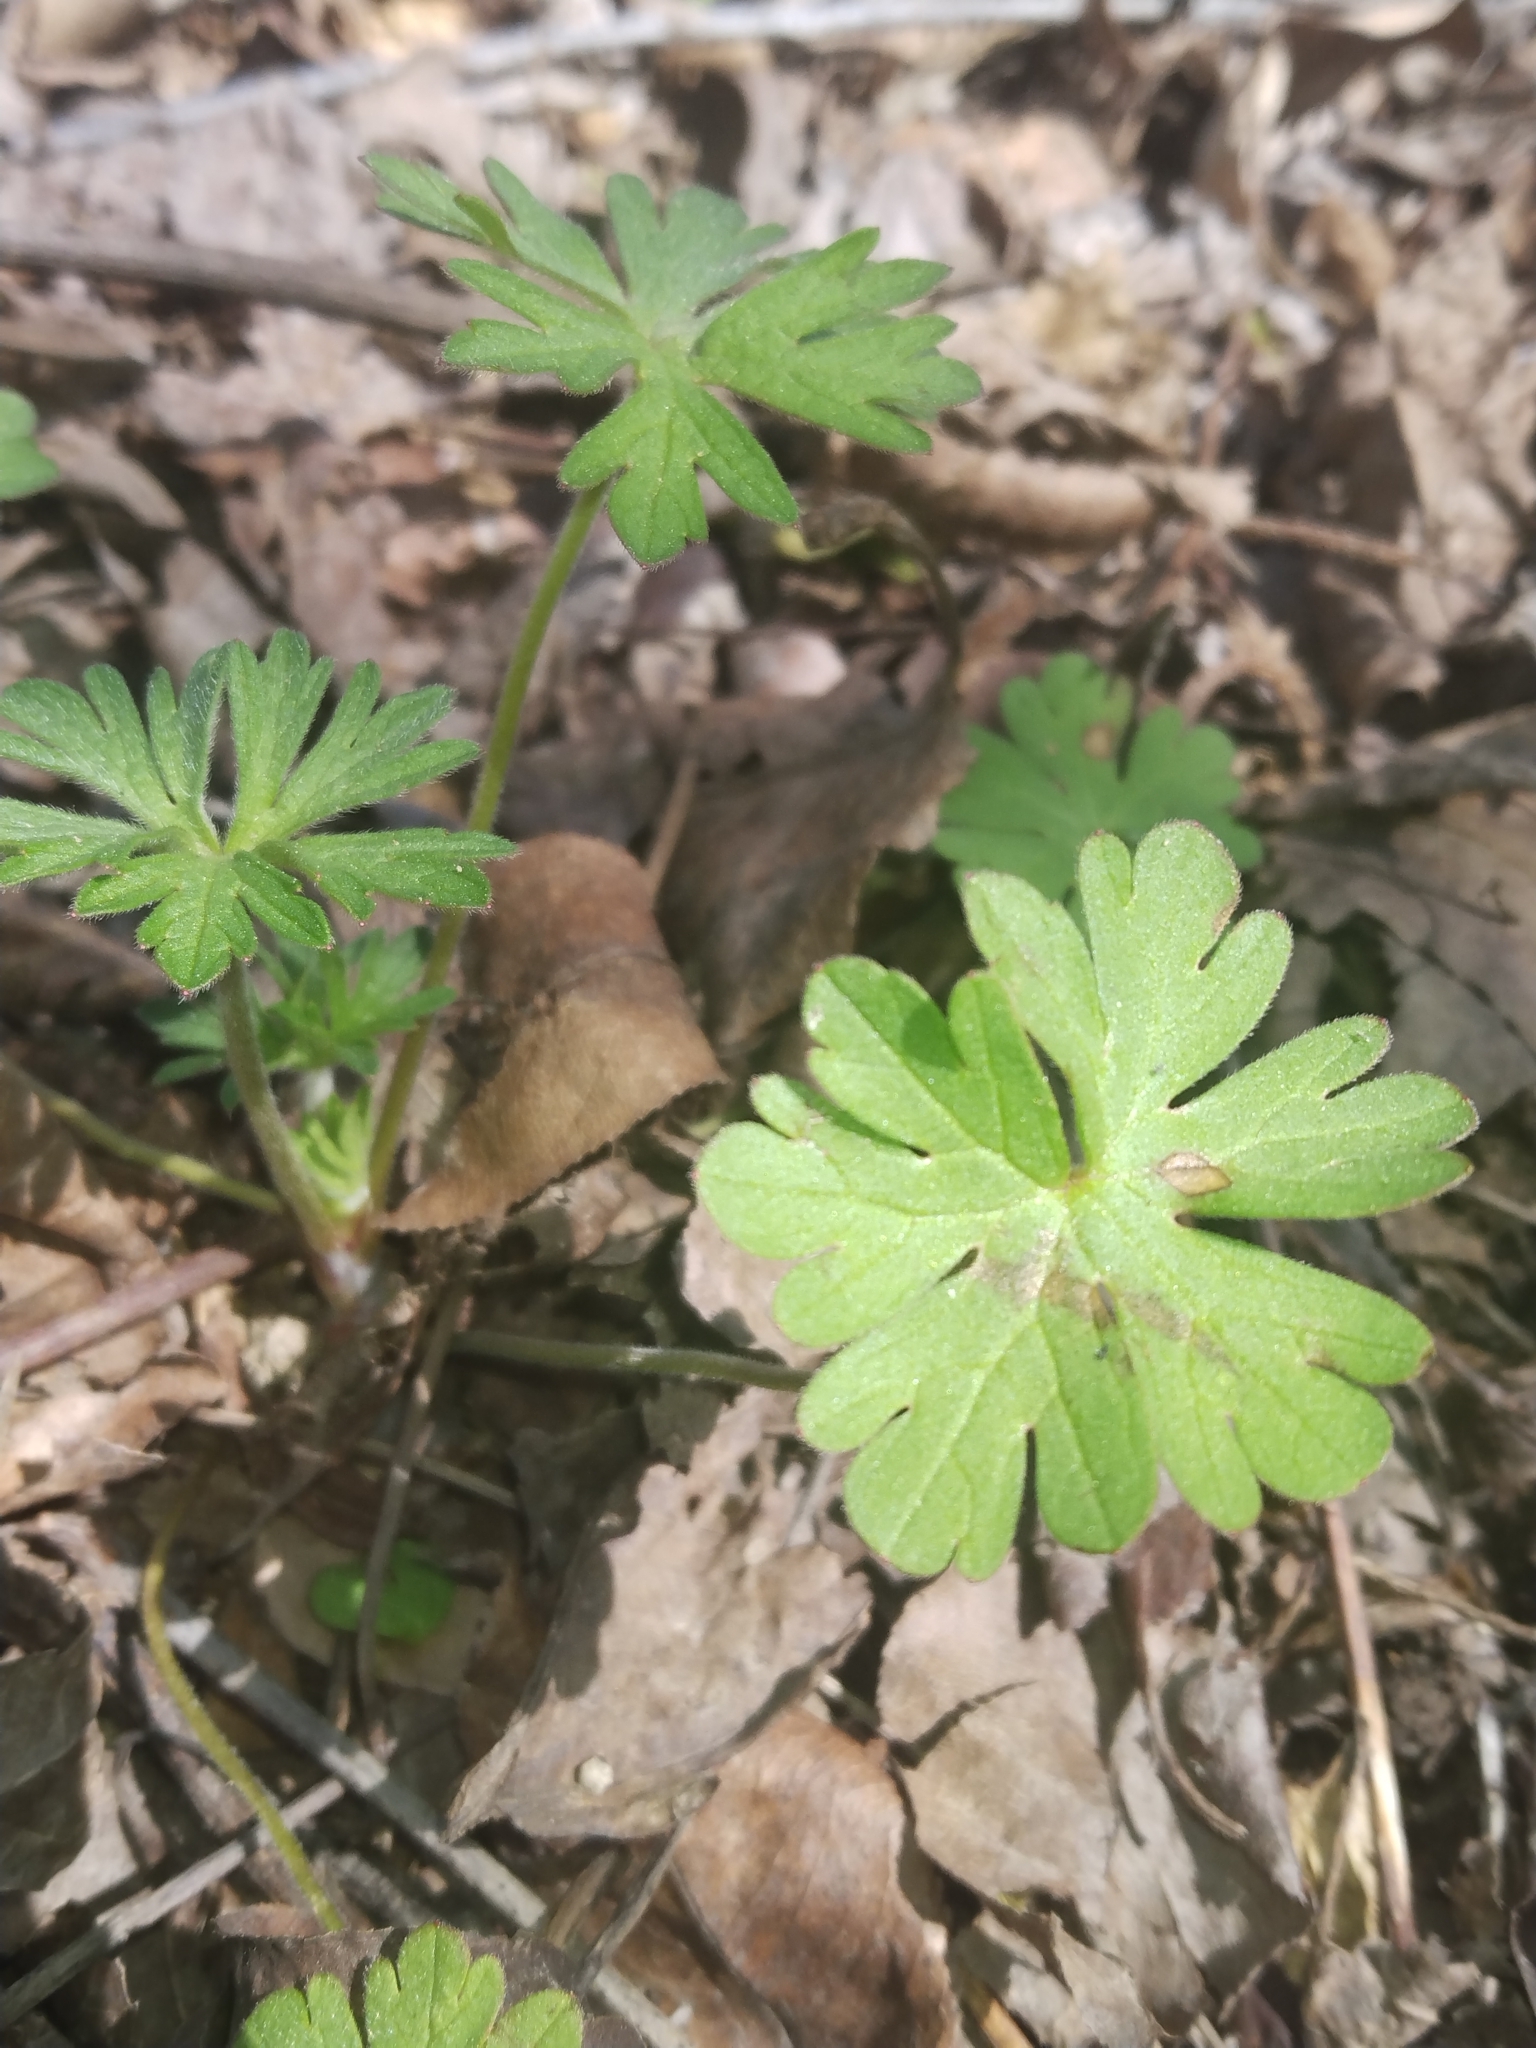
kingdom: Plantae
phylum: Tracheophyta
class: Magnoliopsida
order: Geraniales
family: Geraniaceae
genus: Geranium
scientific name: Geranium carolinianum
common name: Carolina crane's-bill
